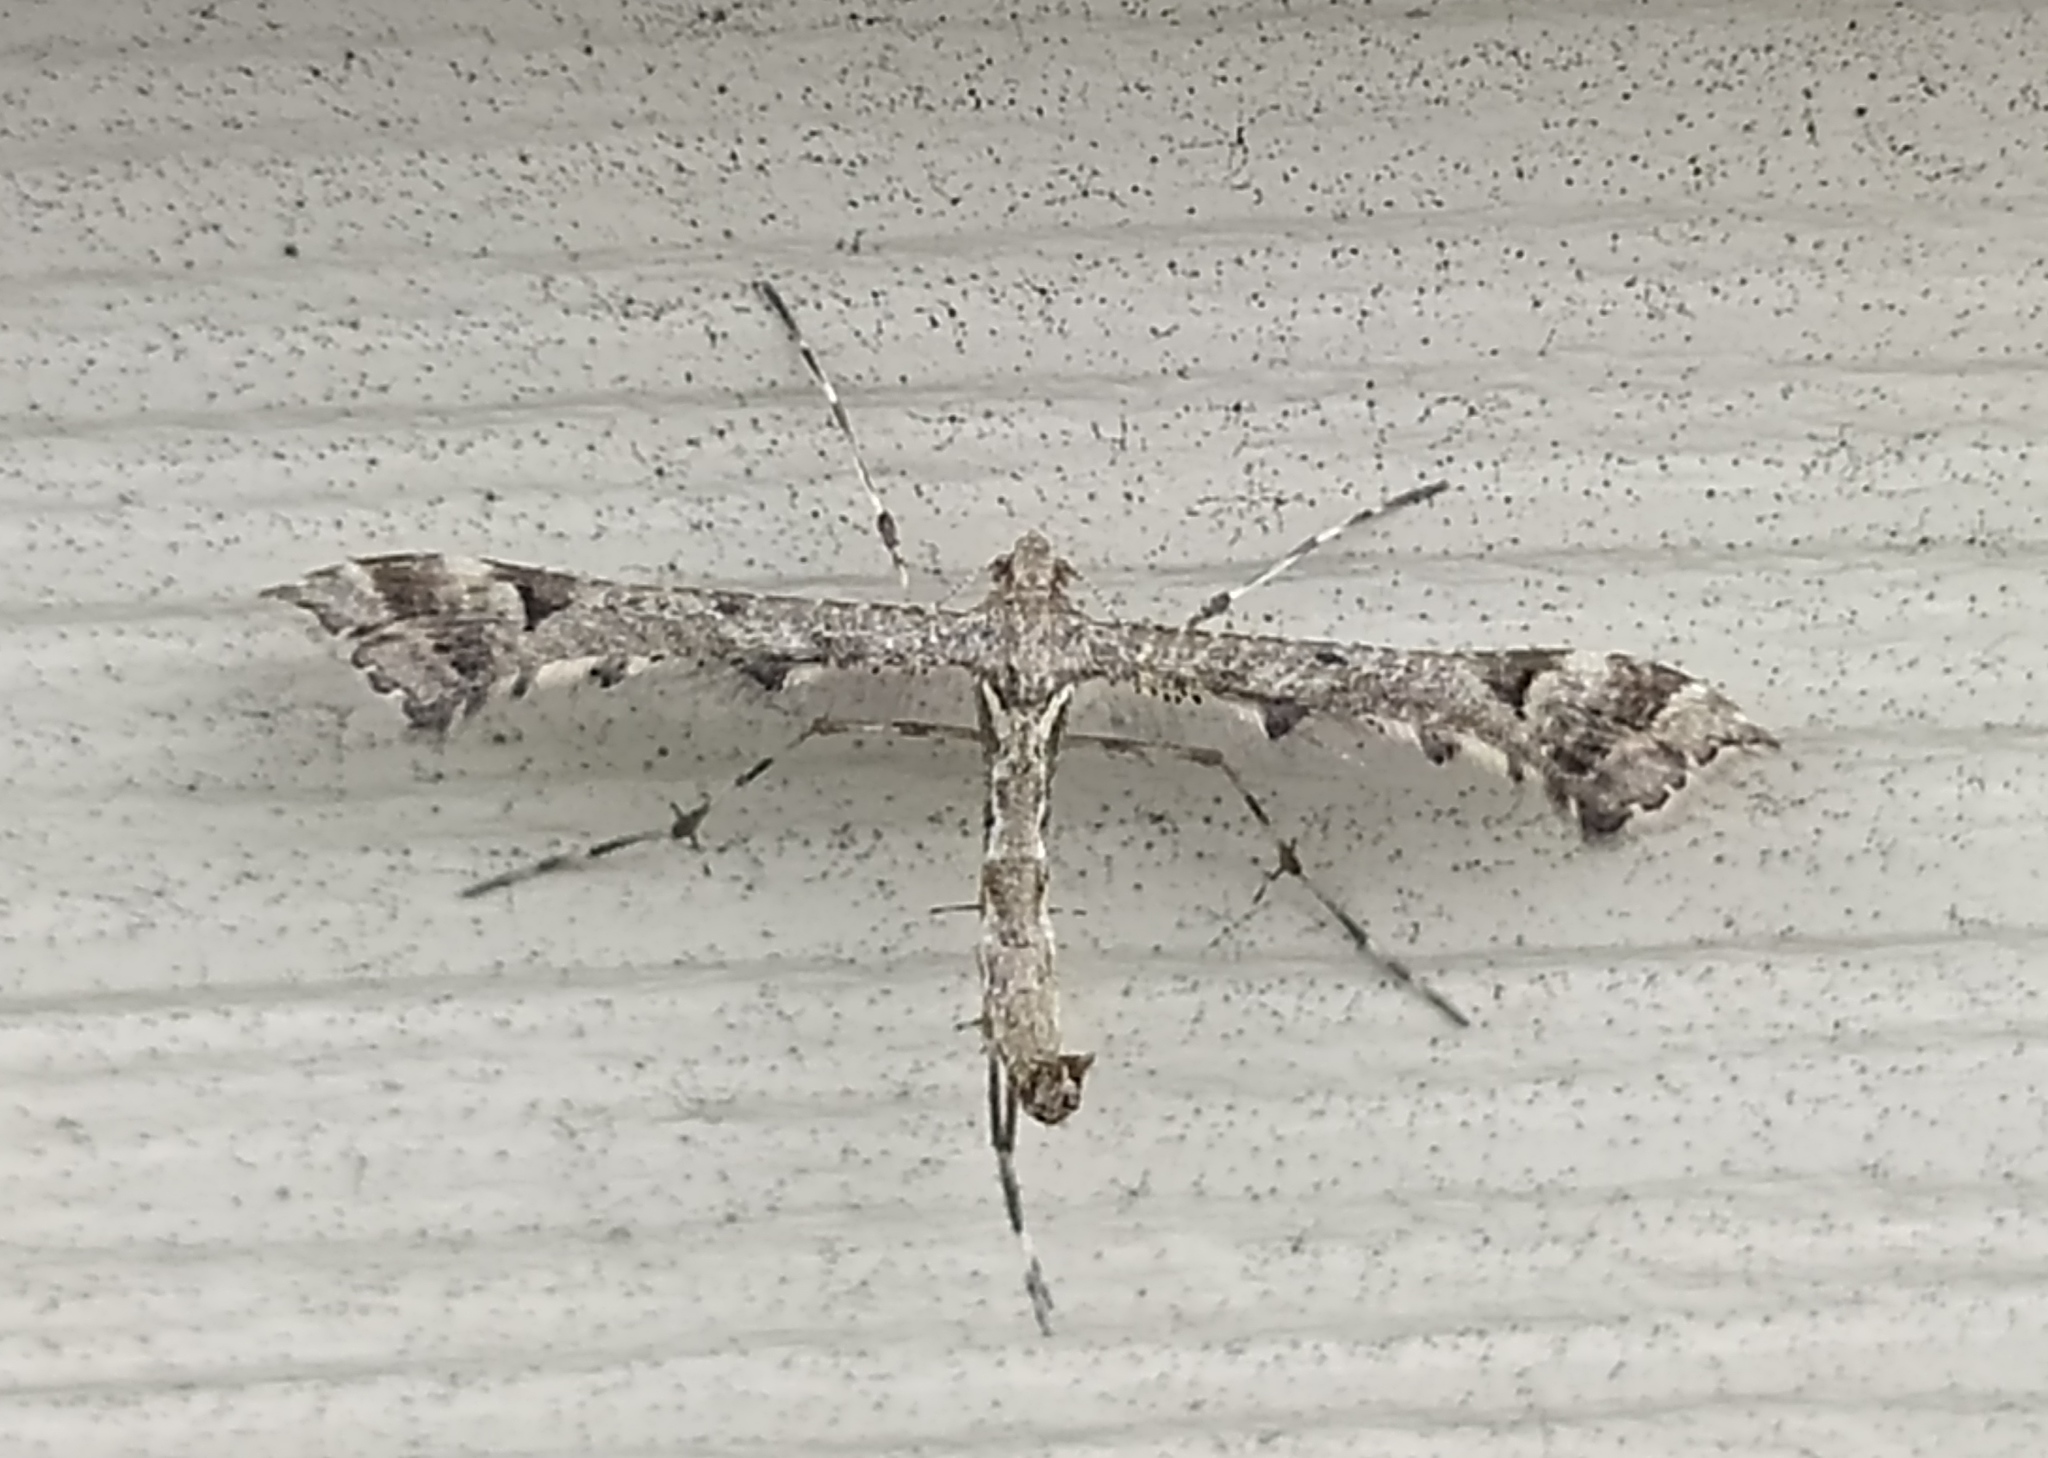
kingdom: Animalia
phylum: Arthropoda
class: Insecta
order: Lepidoptera
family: Pterophoridae
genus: Amblyptilia
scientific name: Amblyptilia punctidactyla
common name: Brindled plume
